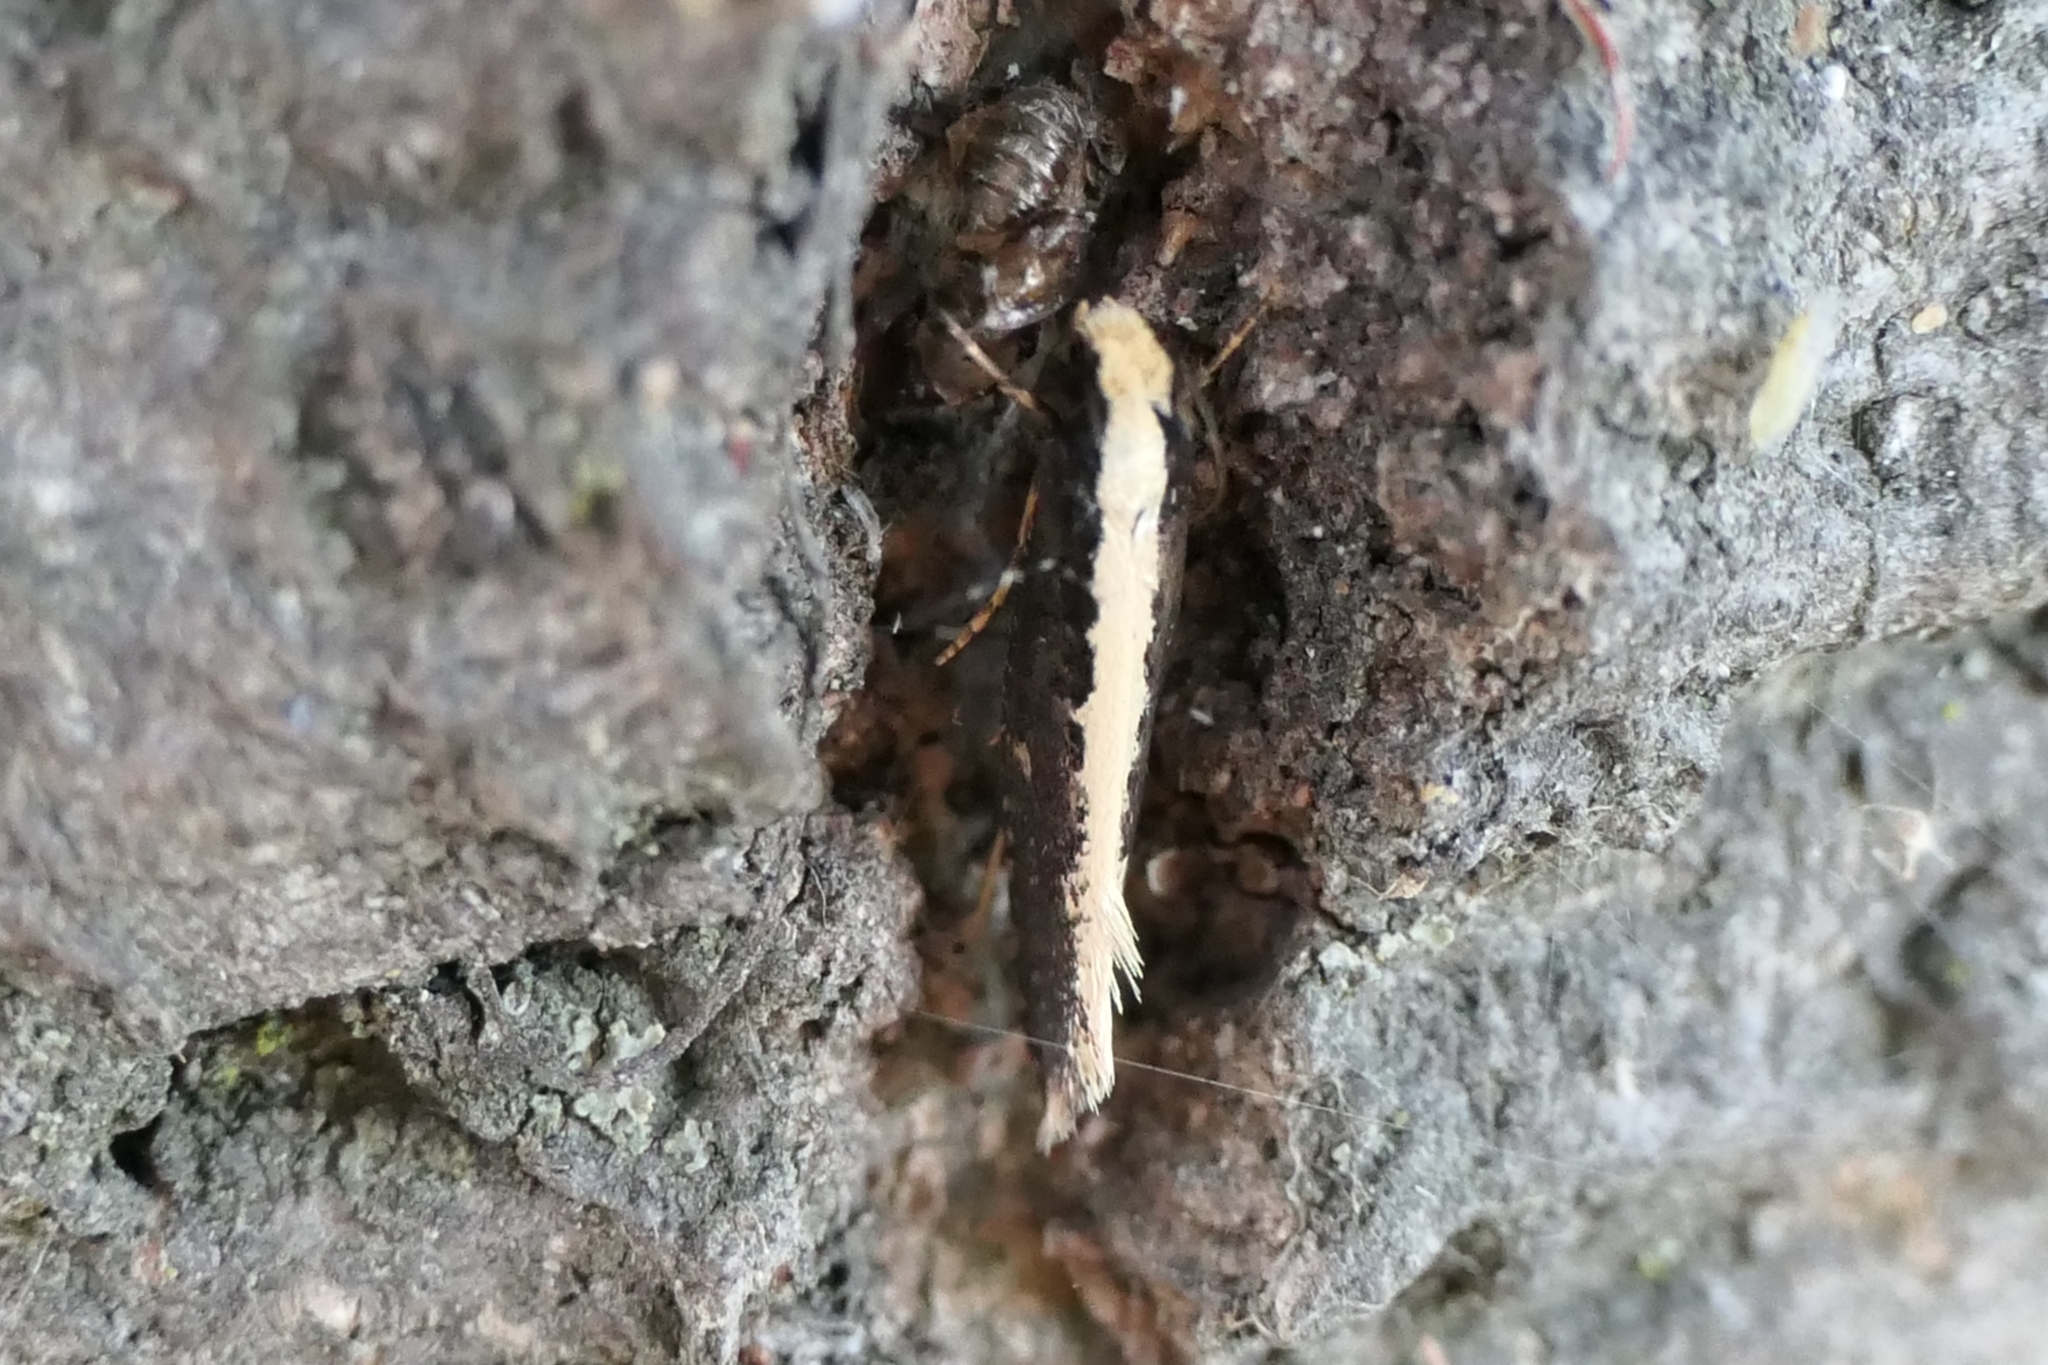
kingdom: Animalia
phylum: Arthropoda
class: Insecta
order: Lepidoptera
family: Tineidae
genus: Monopis
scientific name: Monopis ethelella
